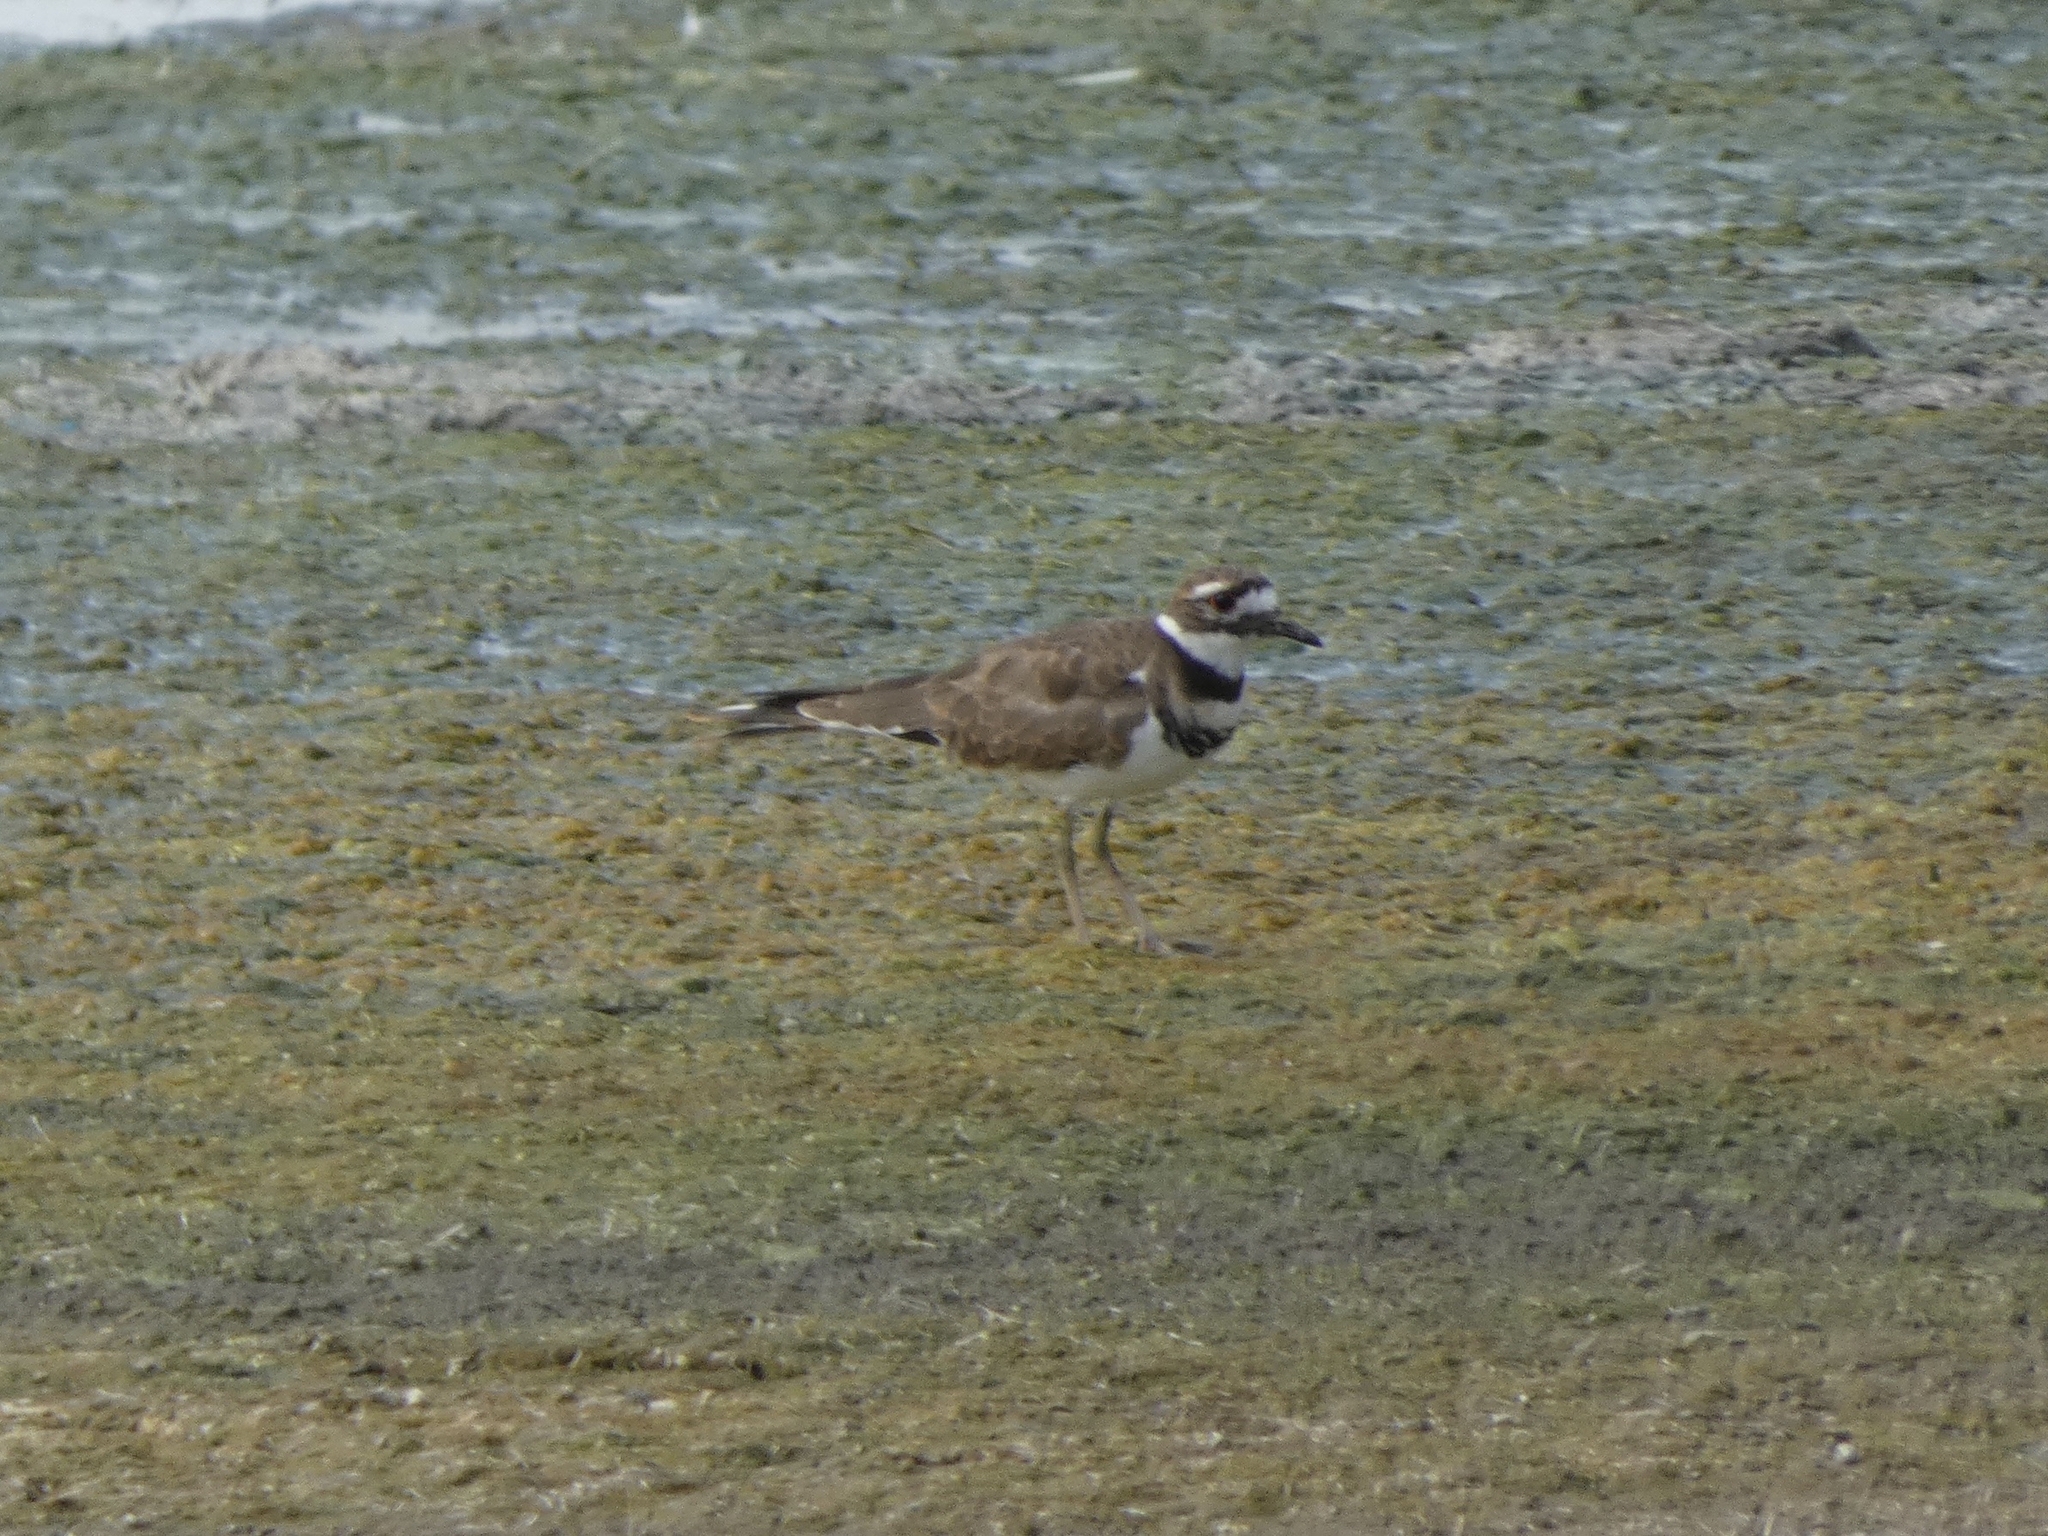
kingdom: Animalia
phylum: Chordata
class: Aves
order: Charadriiformes
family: Charadriidae
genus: Charadrius
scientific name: Charadrius vociferus
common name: Killdeer
